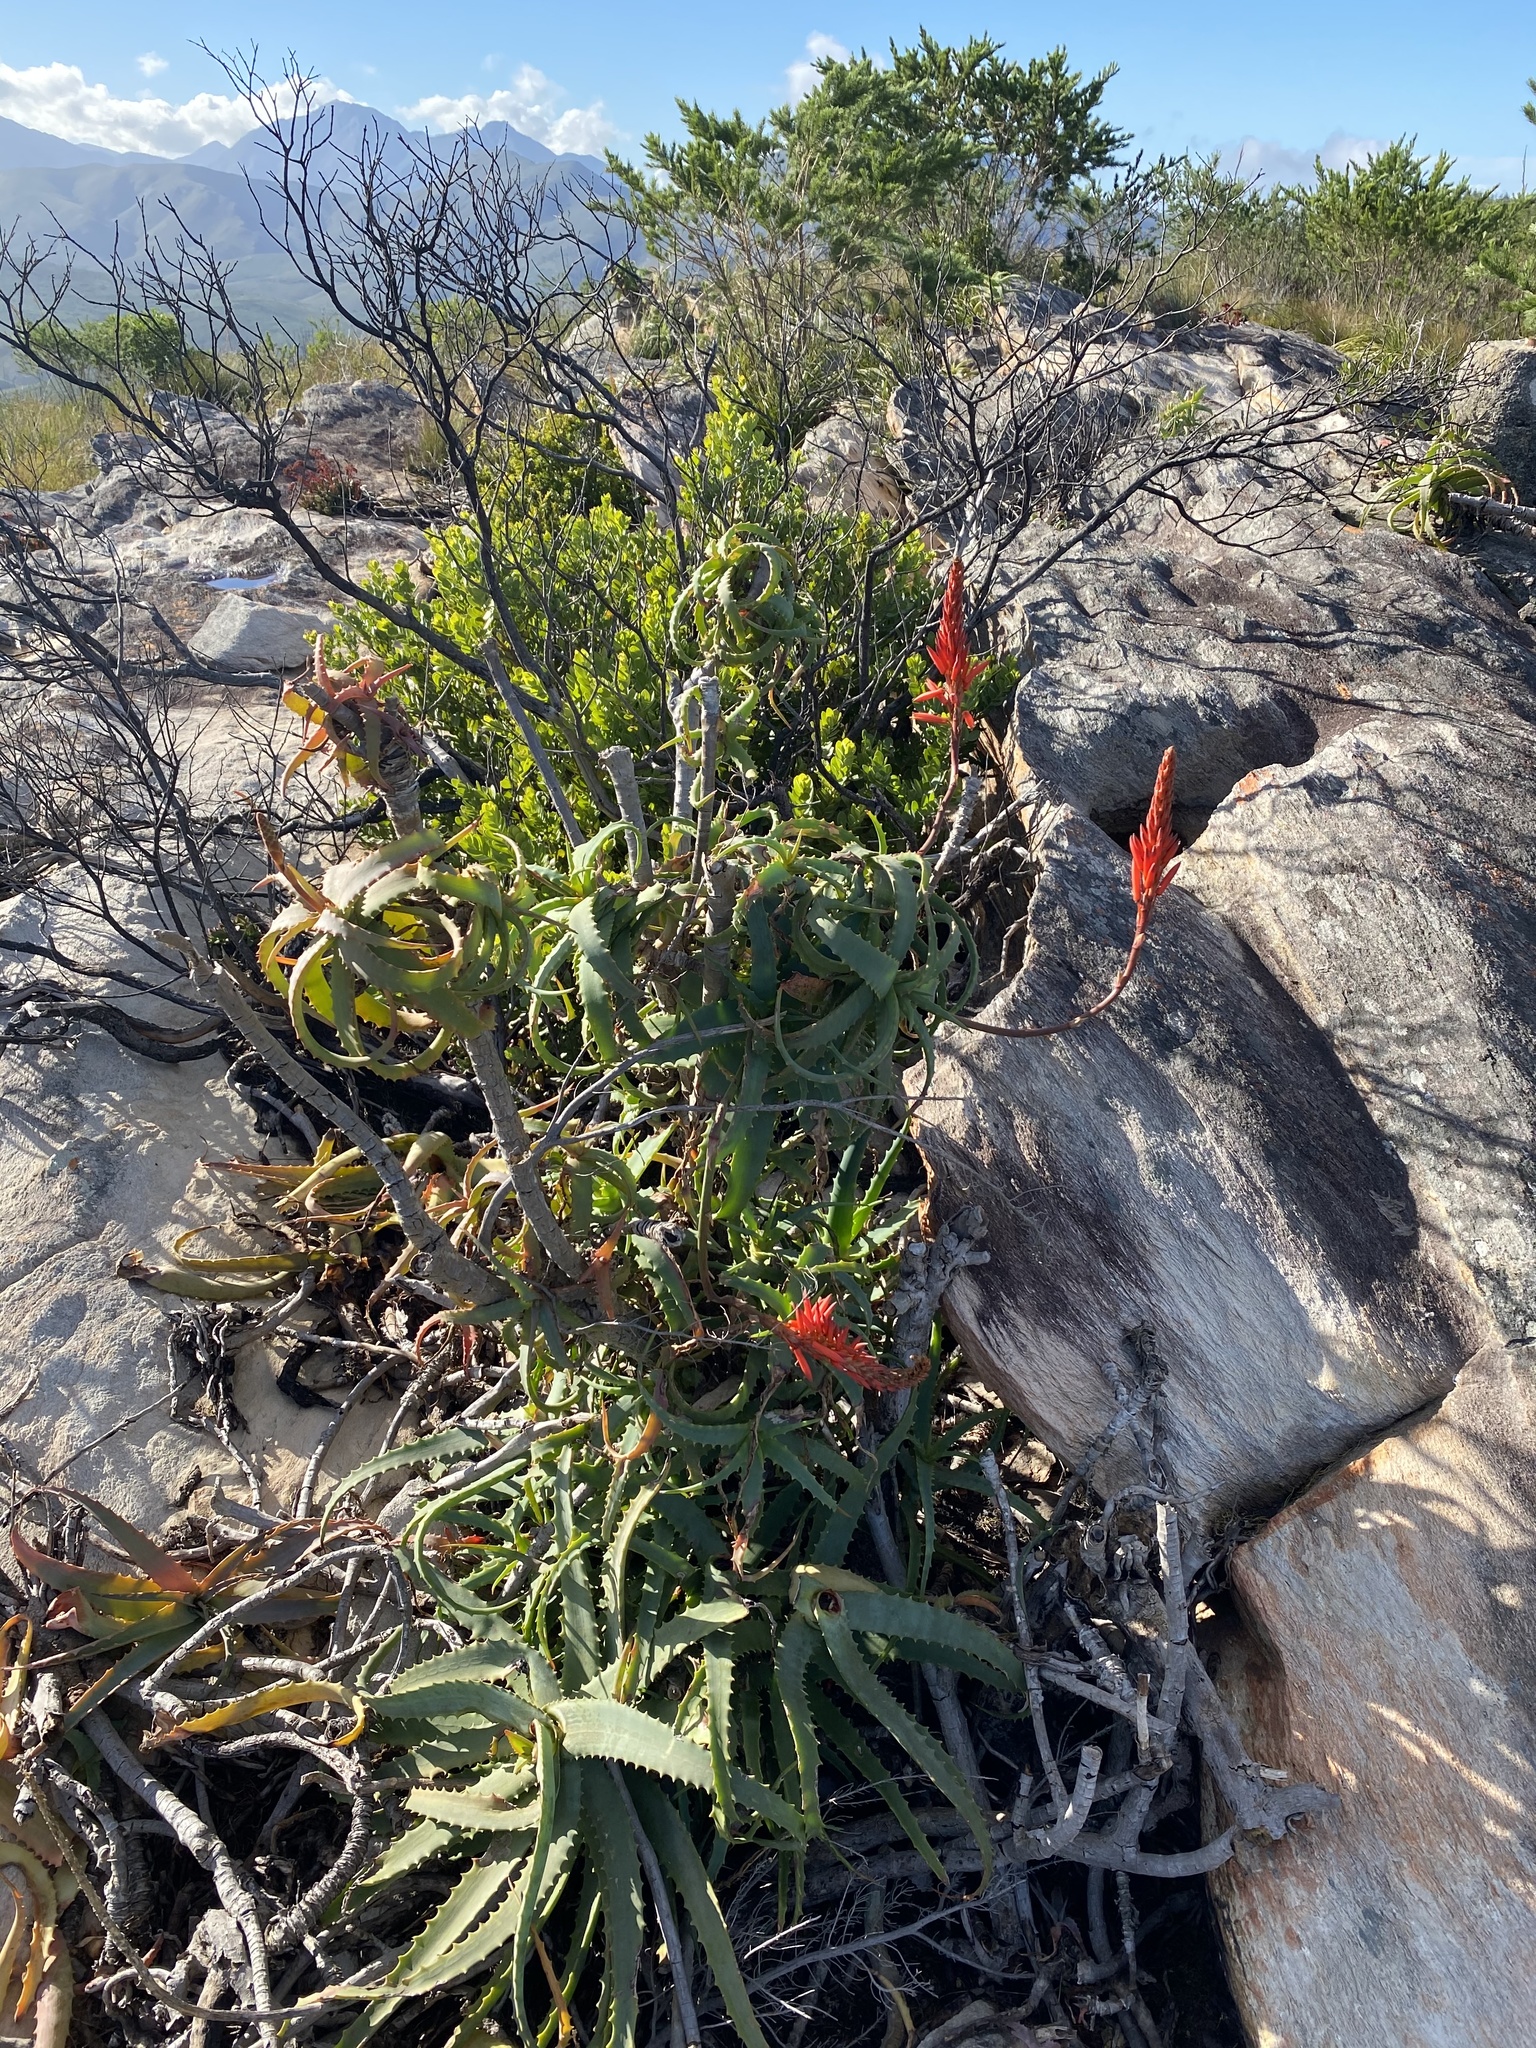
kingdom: Plantae
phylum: Tracheophyta
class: Liliopsida
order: Asparagales
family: Asphodelaceae
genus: Aloe
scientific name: Aloe arborescens
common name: Candelabra aloe
